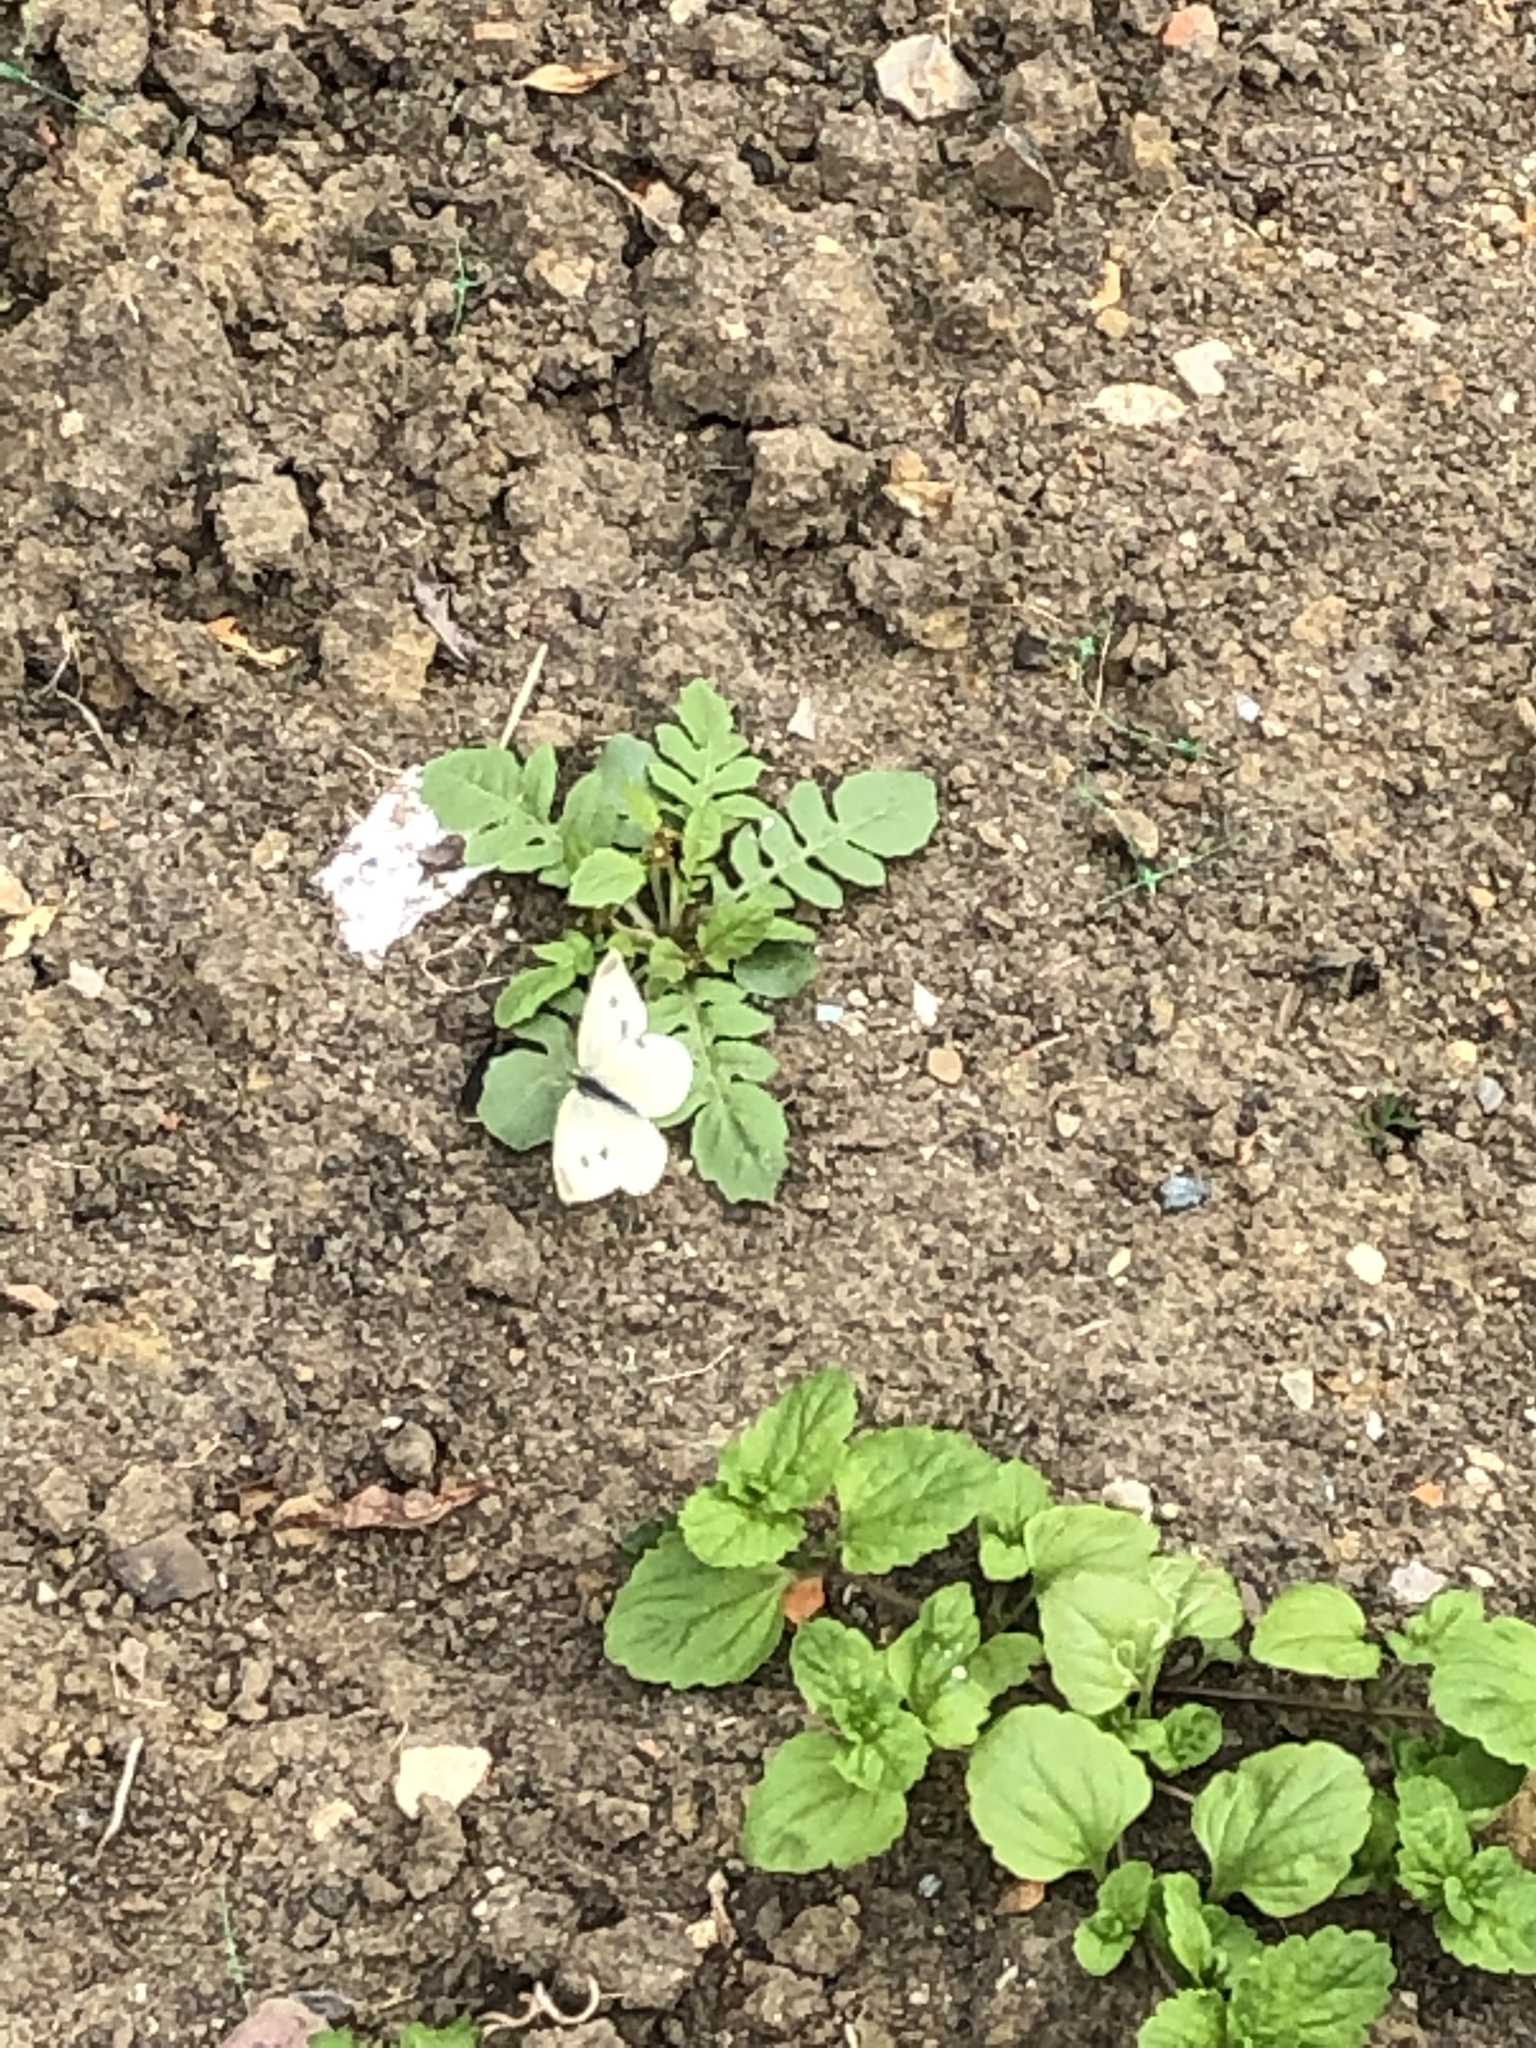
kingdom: Animalia
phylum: Arthropoda
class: Insecta
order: Lepidoptera
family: Pieridae
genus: Pieris
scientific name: Pieris rapae
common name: Small white
